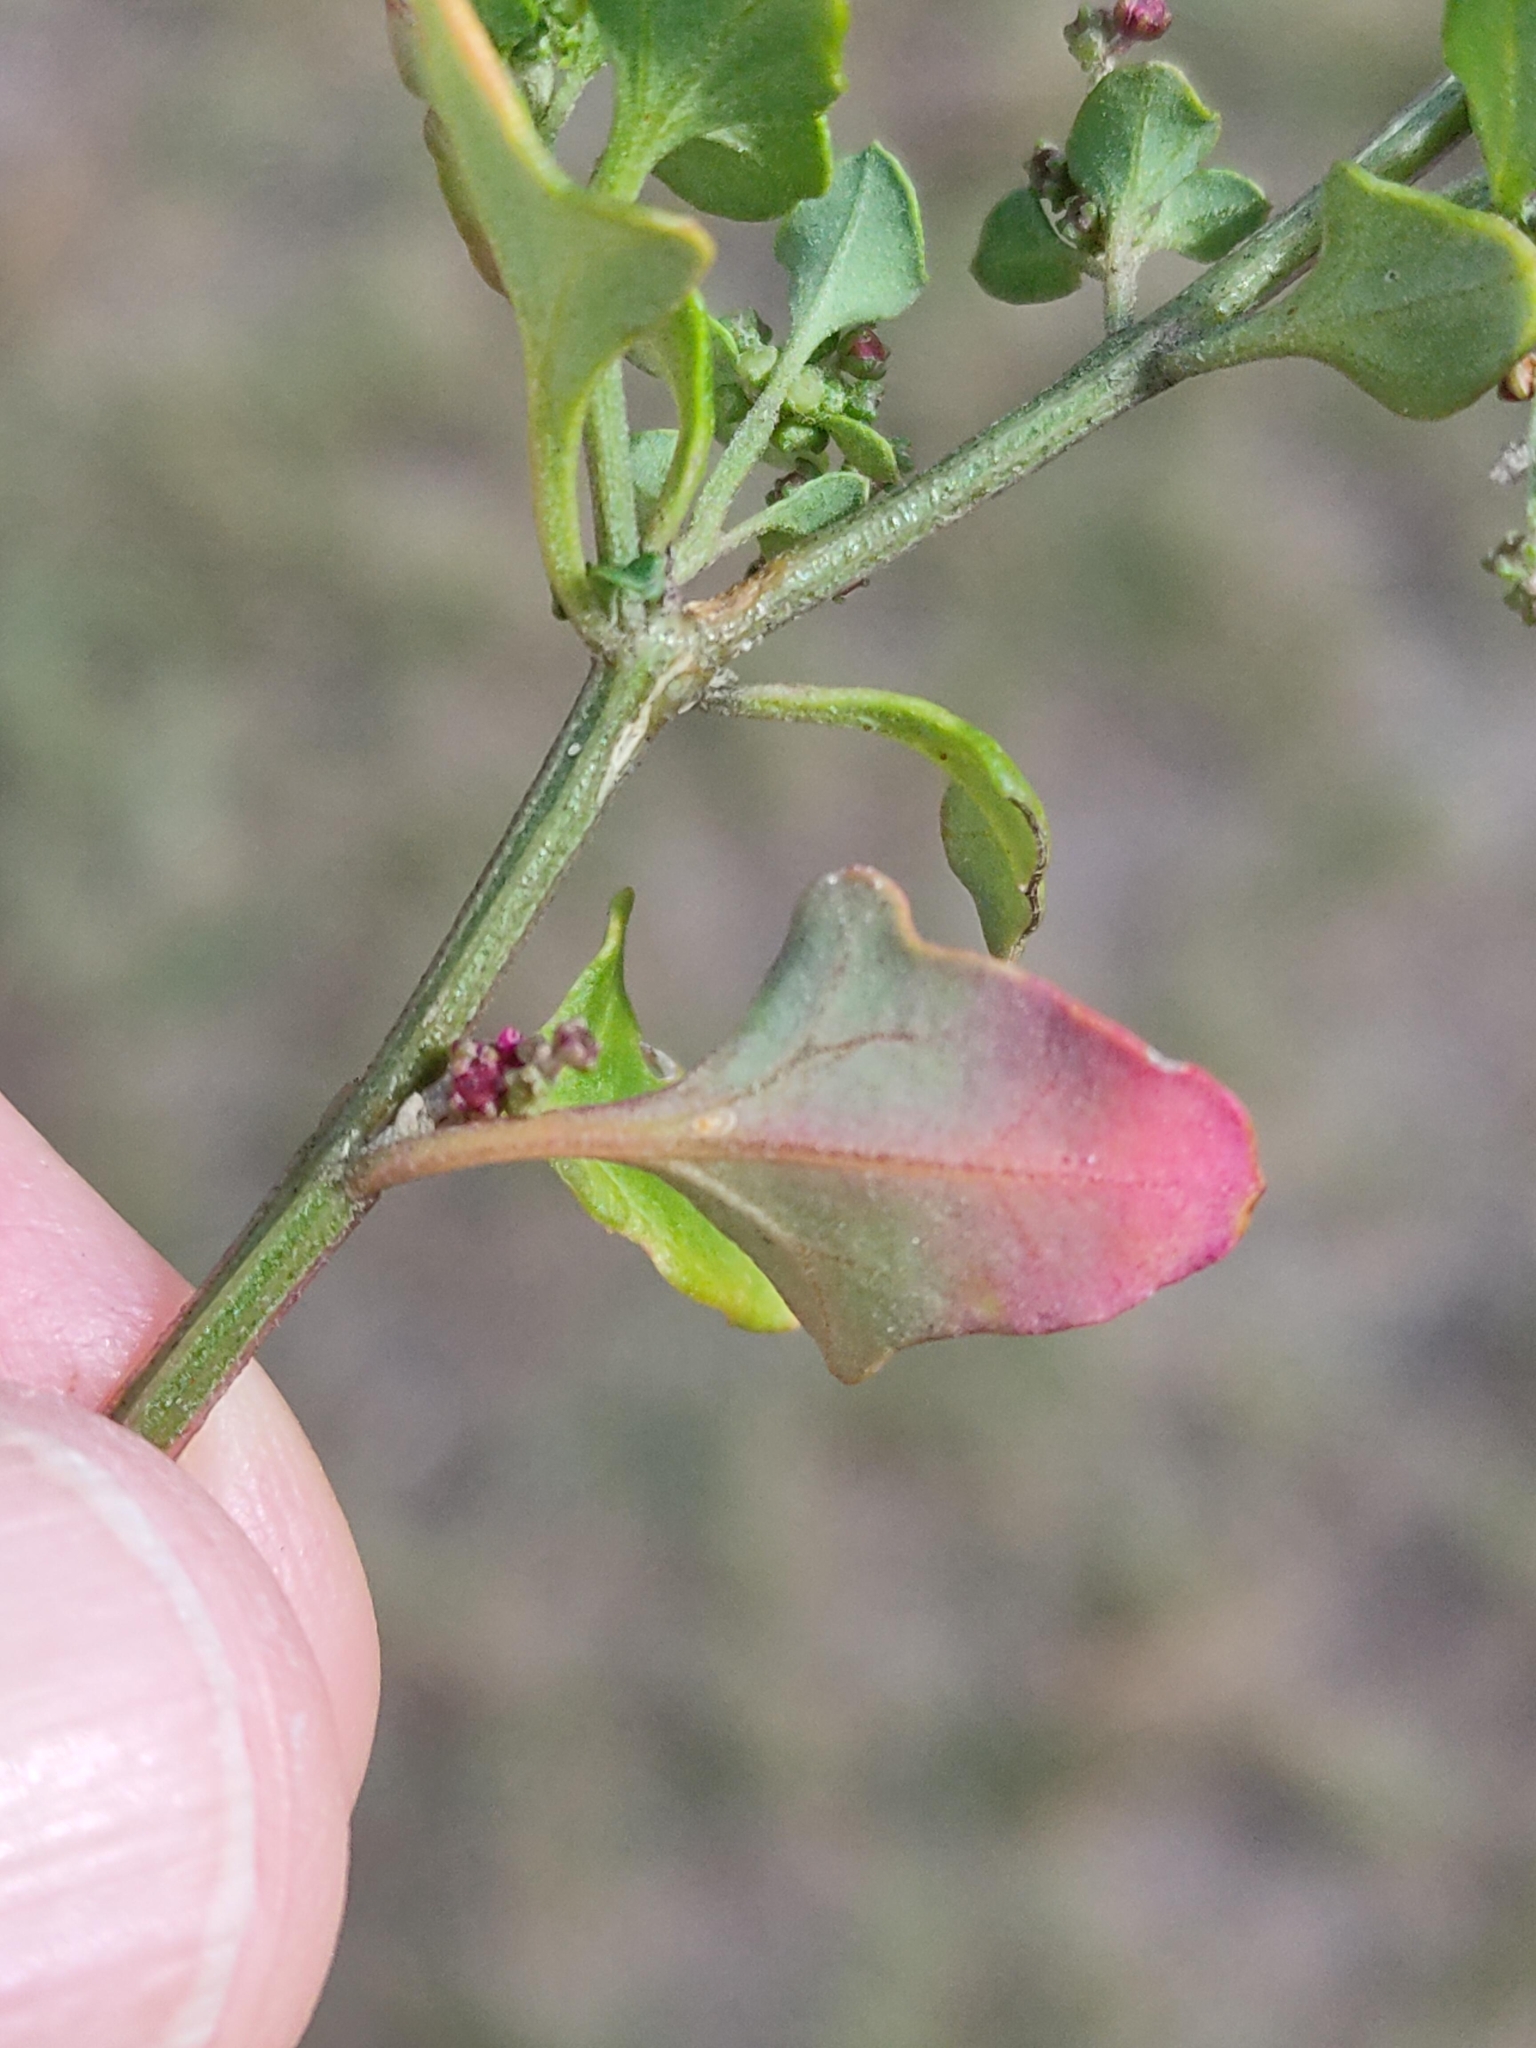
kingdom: Plantae
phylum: Tracheophyta
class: Magnoliopsida
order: Caryophyllales
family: Amaranthaceae
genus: Chenopodium
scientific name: Chenopodium robertianum
